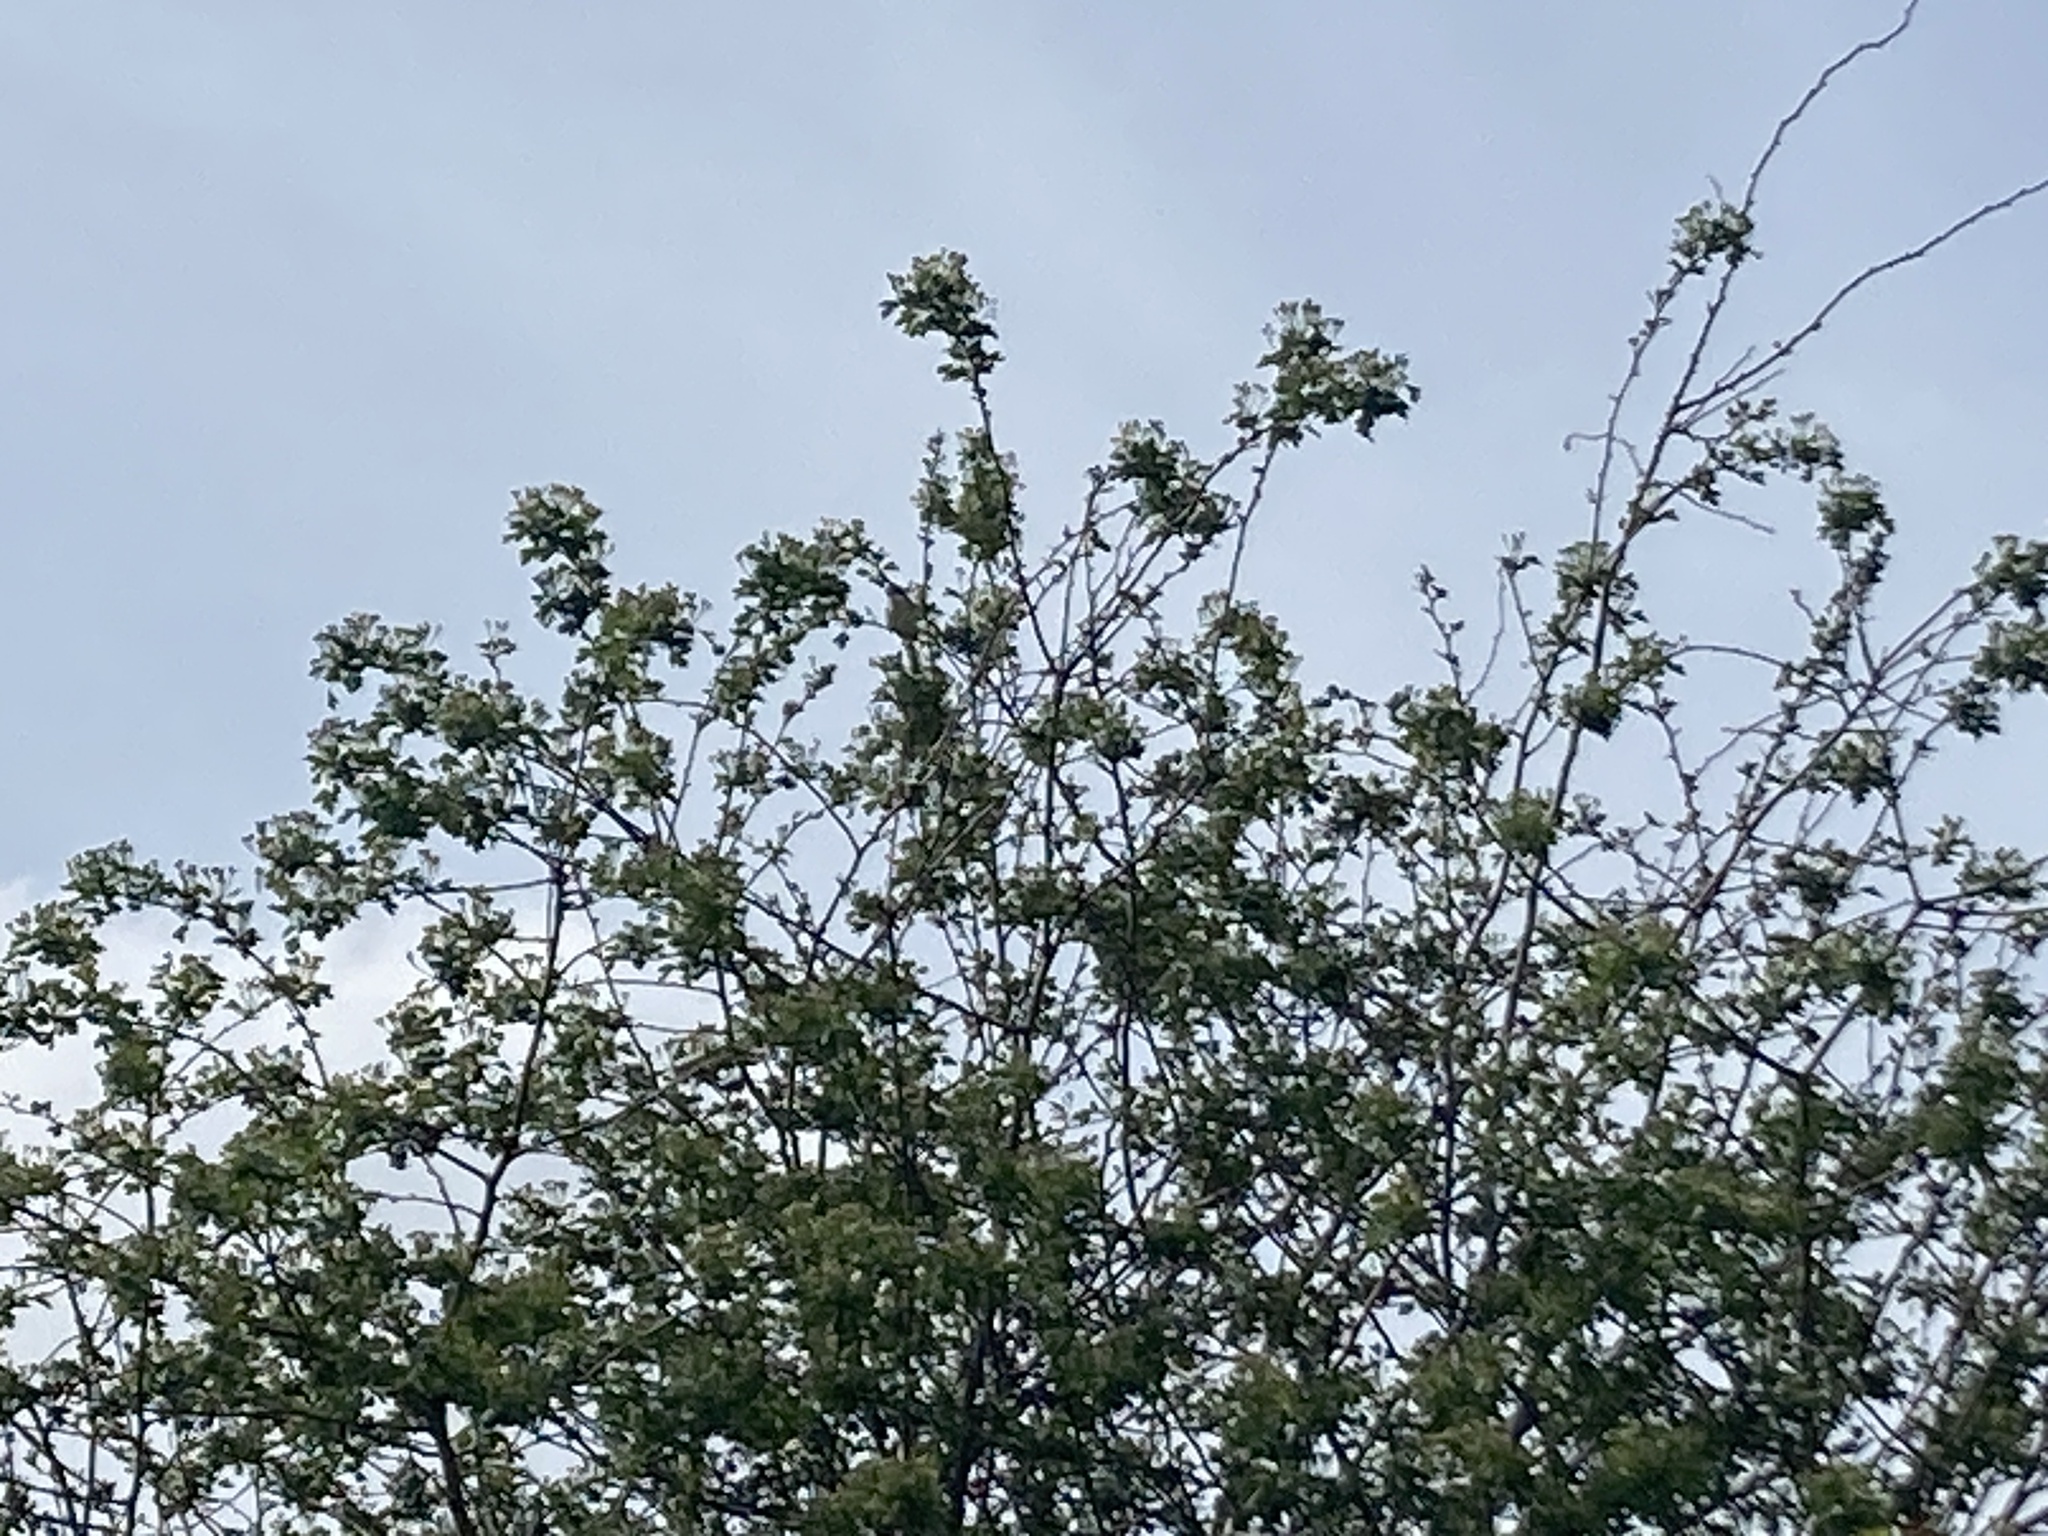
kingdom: Animalia
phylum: Chordata
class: Aves
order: Passeriformes
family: Sylviidae
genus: Sylvia
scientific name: Sylvia communis
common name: Common whitethroat
